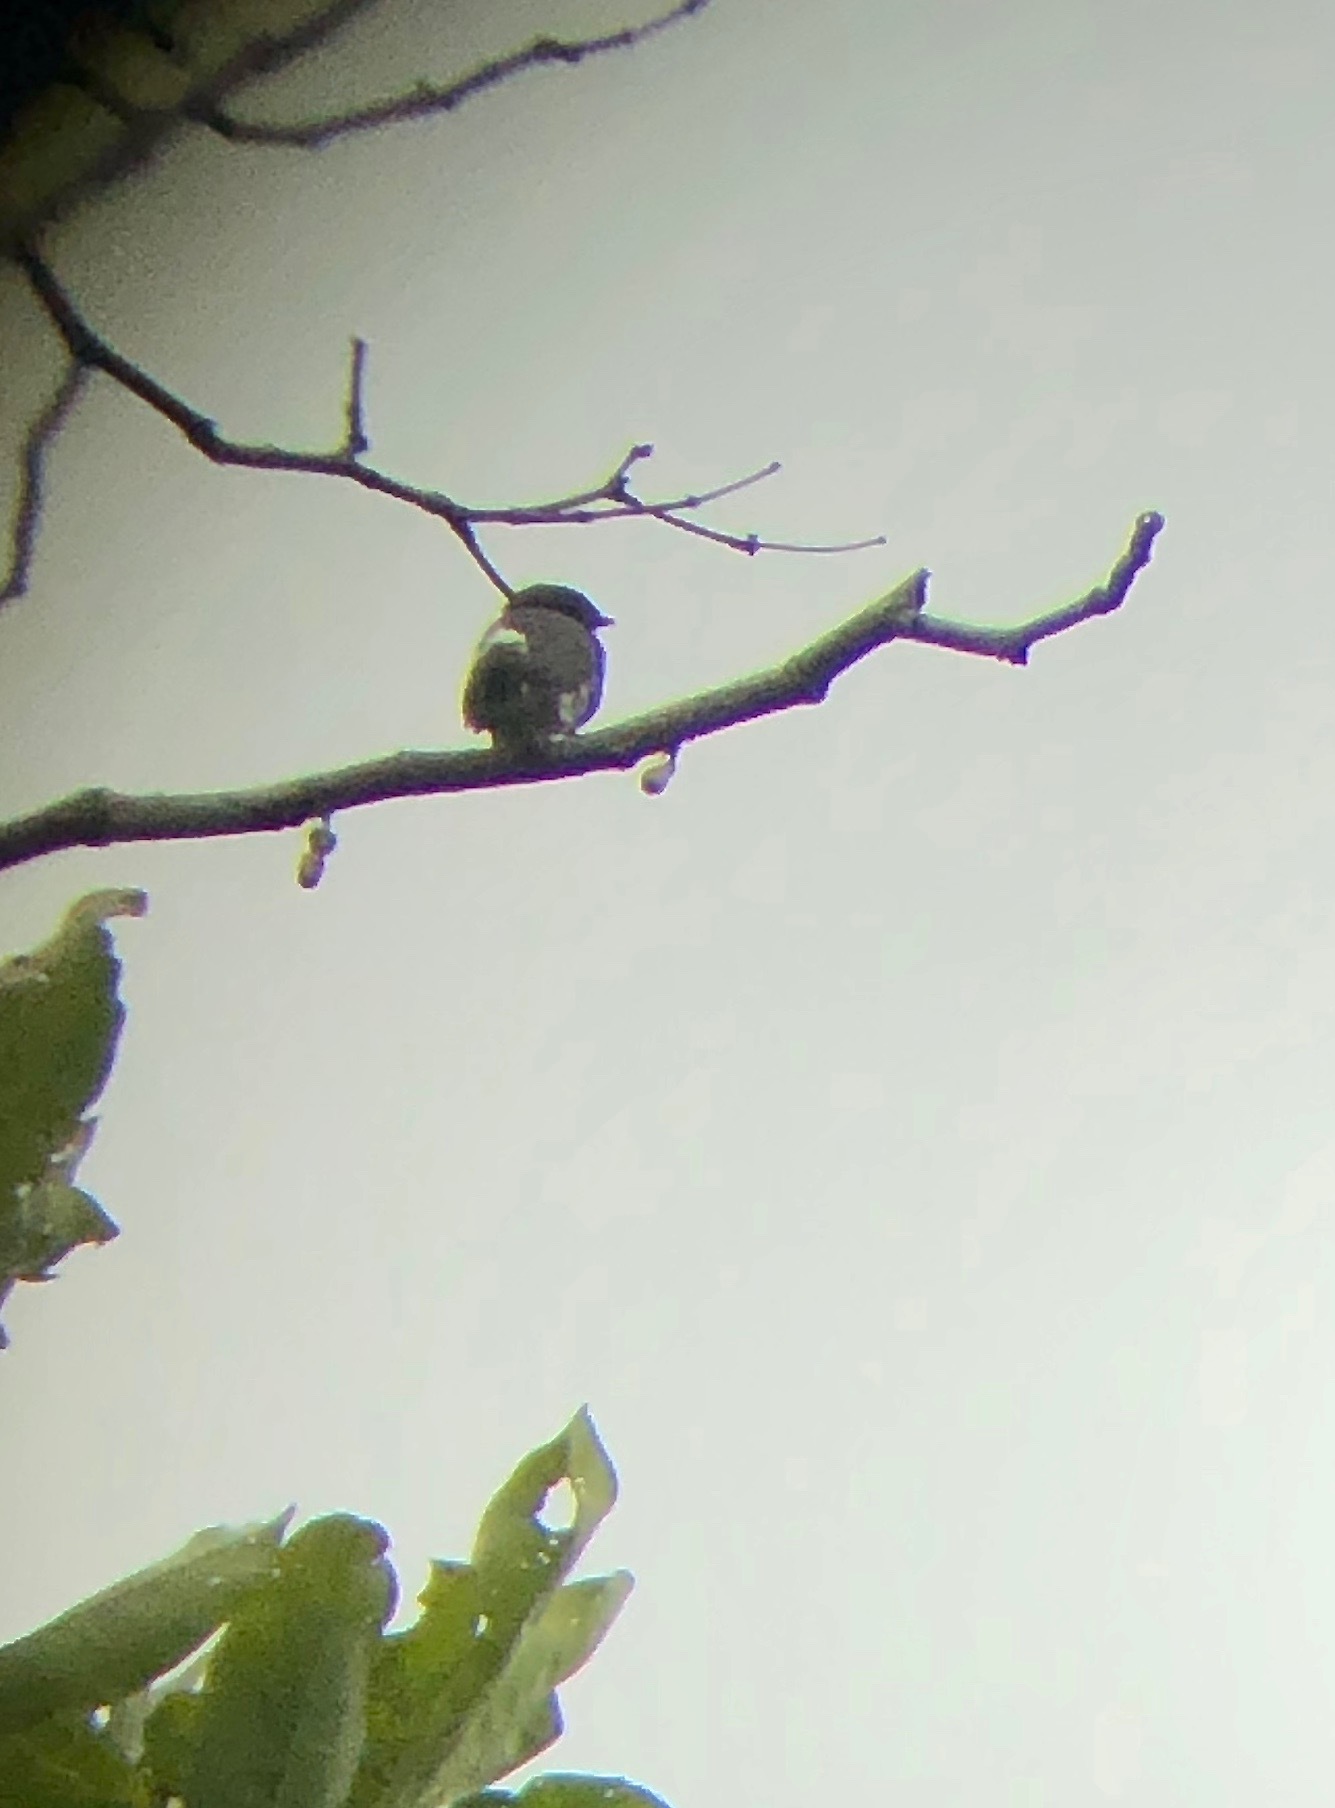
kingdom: Animalia
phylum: Chordata
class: Aves
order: Passeriformes
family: Cotingidae
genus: Iodopleura
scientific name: Iodopleura fusca
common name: Dusky purpletuft
